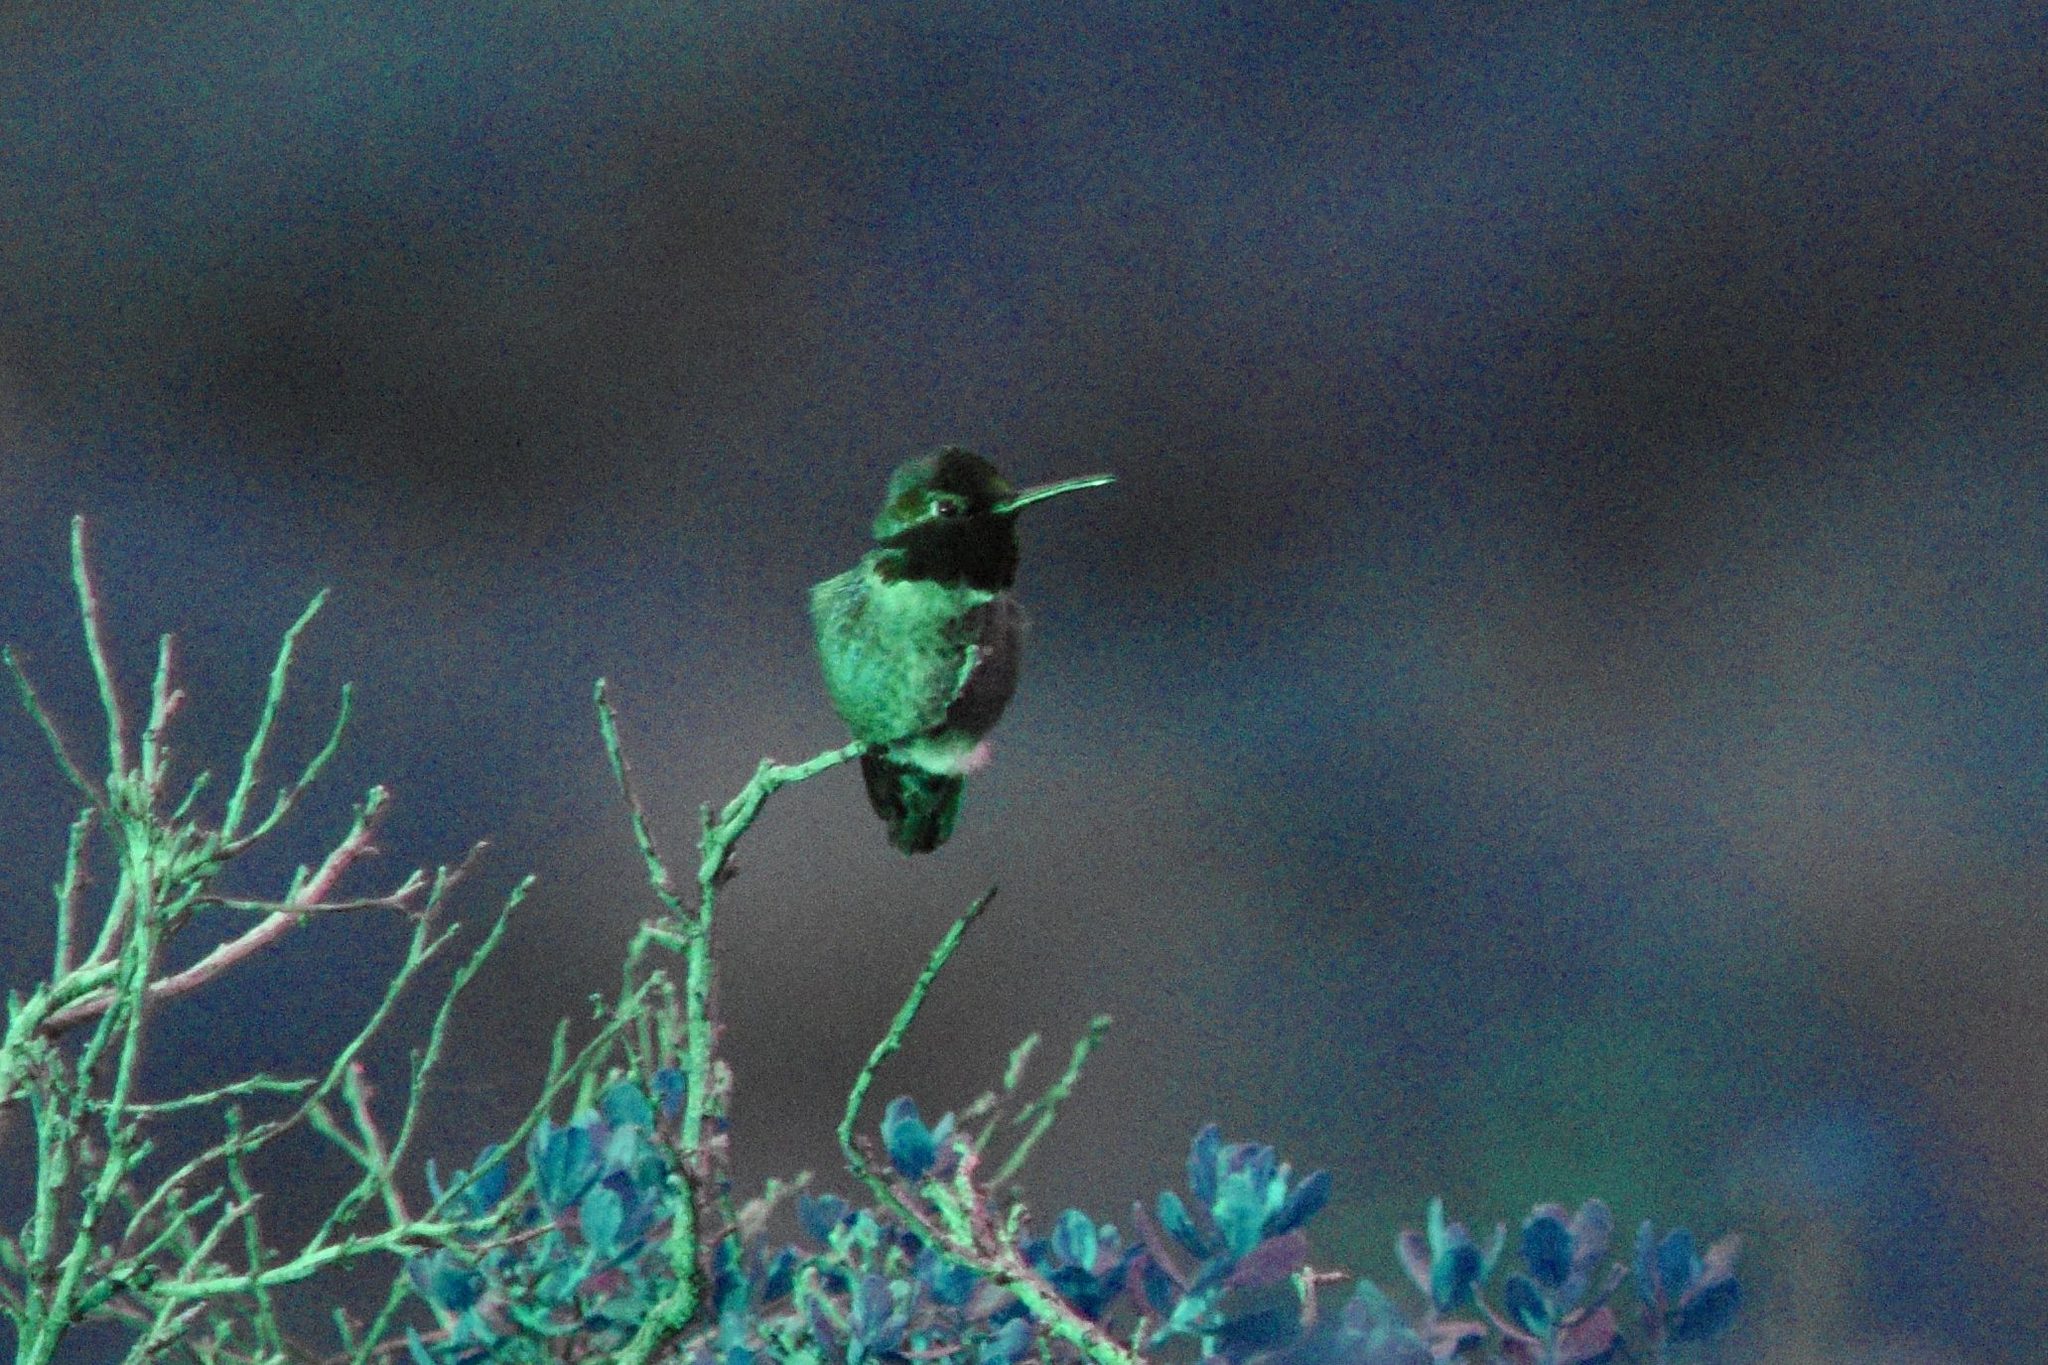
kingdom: Animalia
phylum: Chordata
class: Aves
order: Apodiformes
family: Trochilidae
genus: Calypte
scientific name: Calypte anna
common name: Anna's hummingbird
